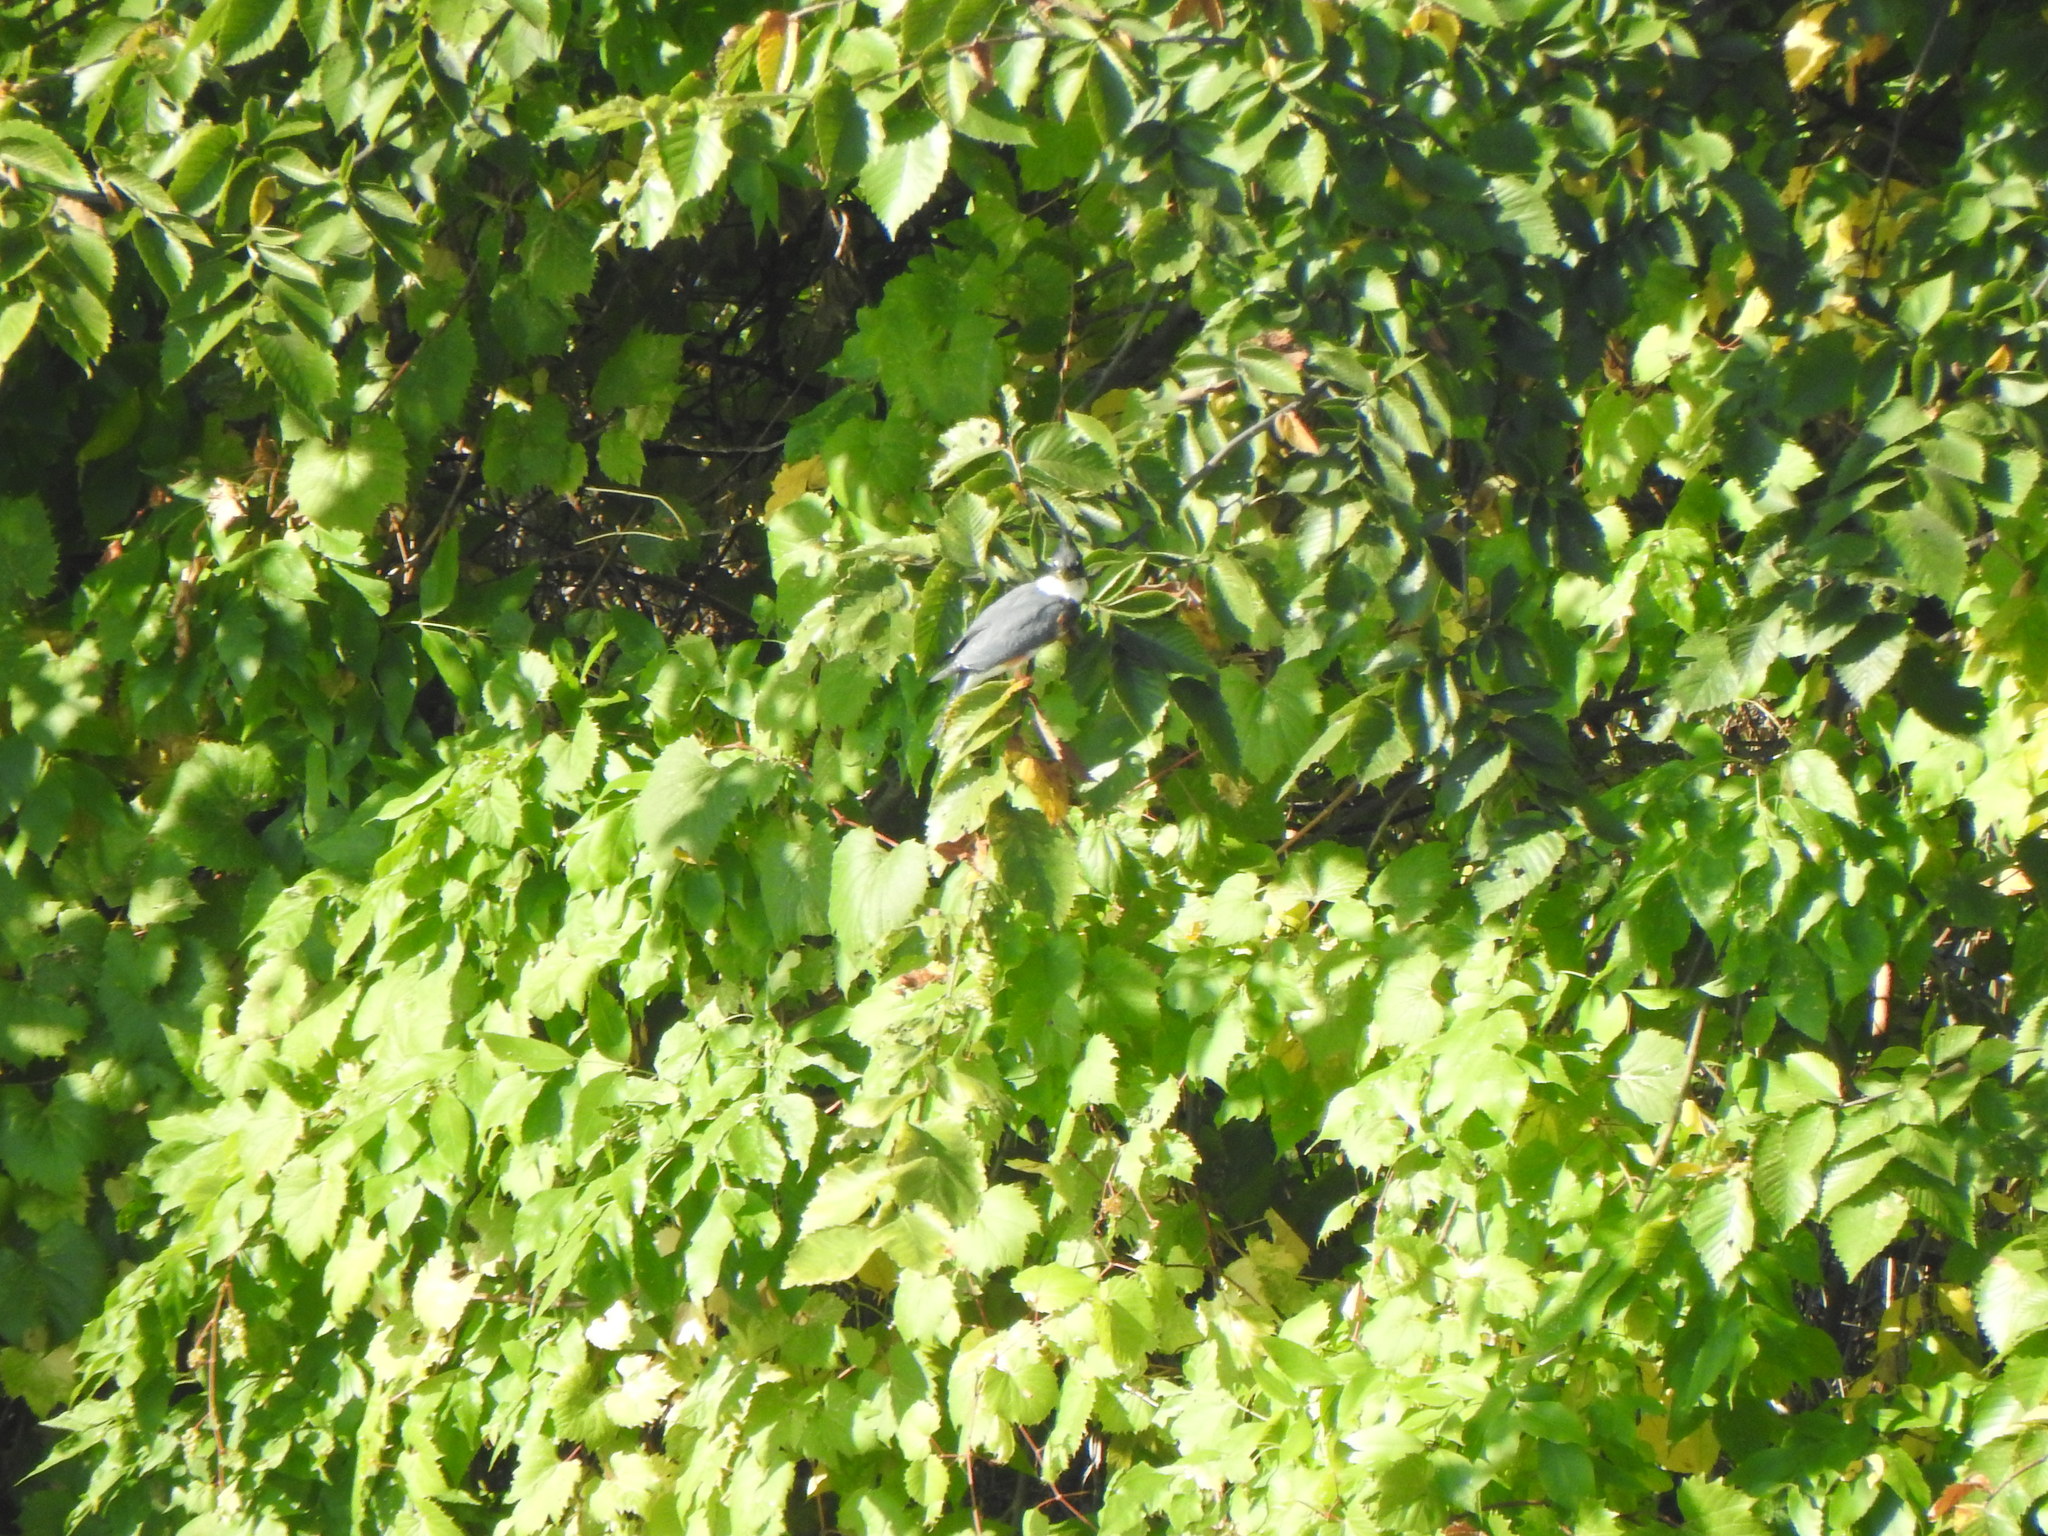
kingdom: Animalia
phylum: Chordata
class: Aves
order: Coraciiformes
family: Alcedinidae
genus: Megaceryle
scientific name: Megaceryle alcyon
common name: Belted kingfisher
